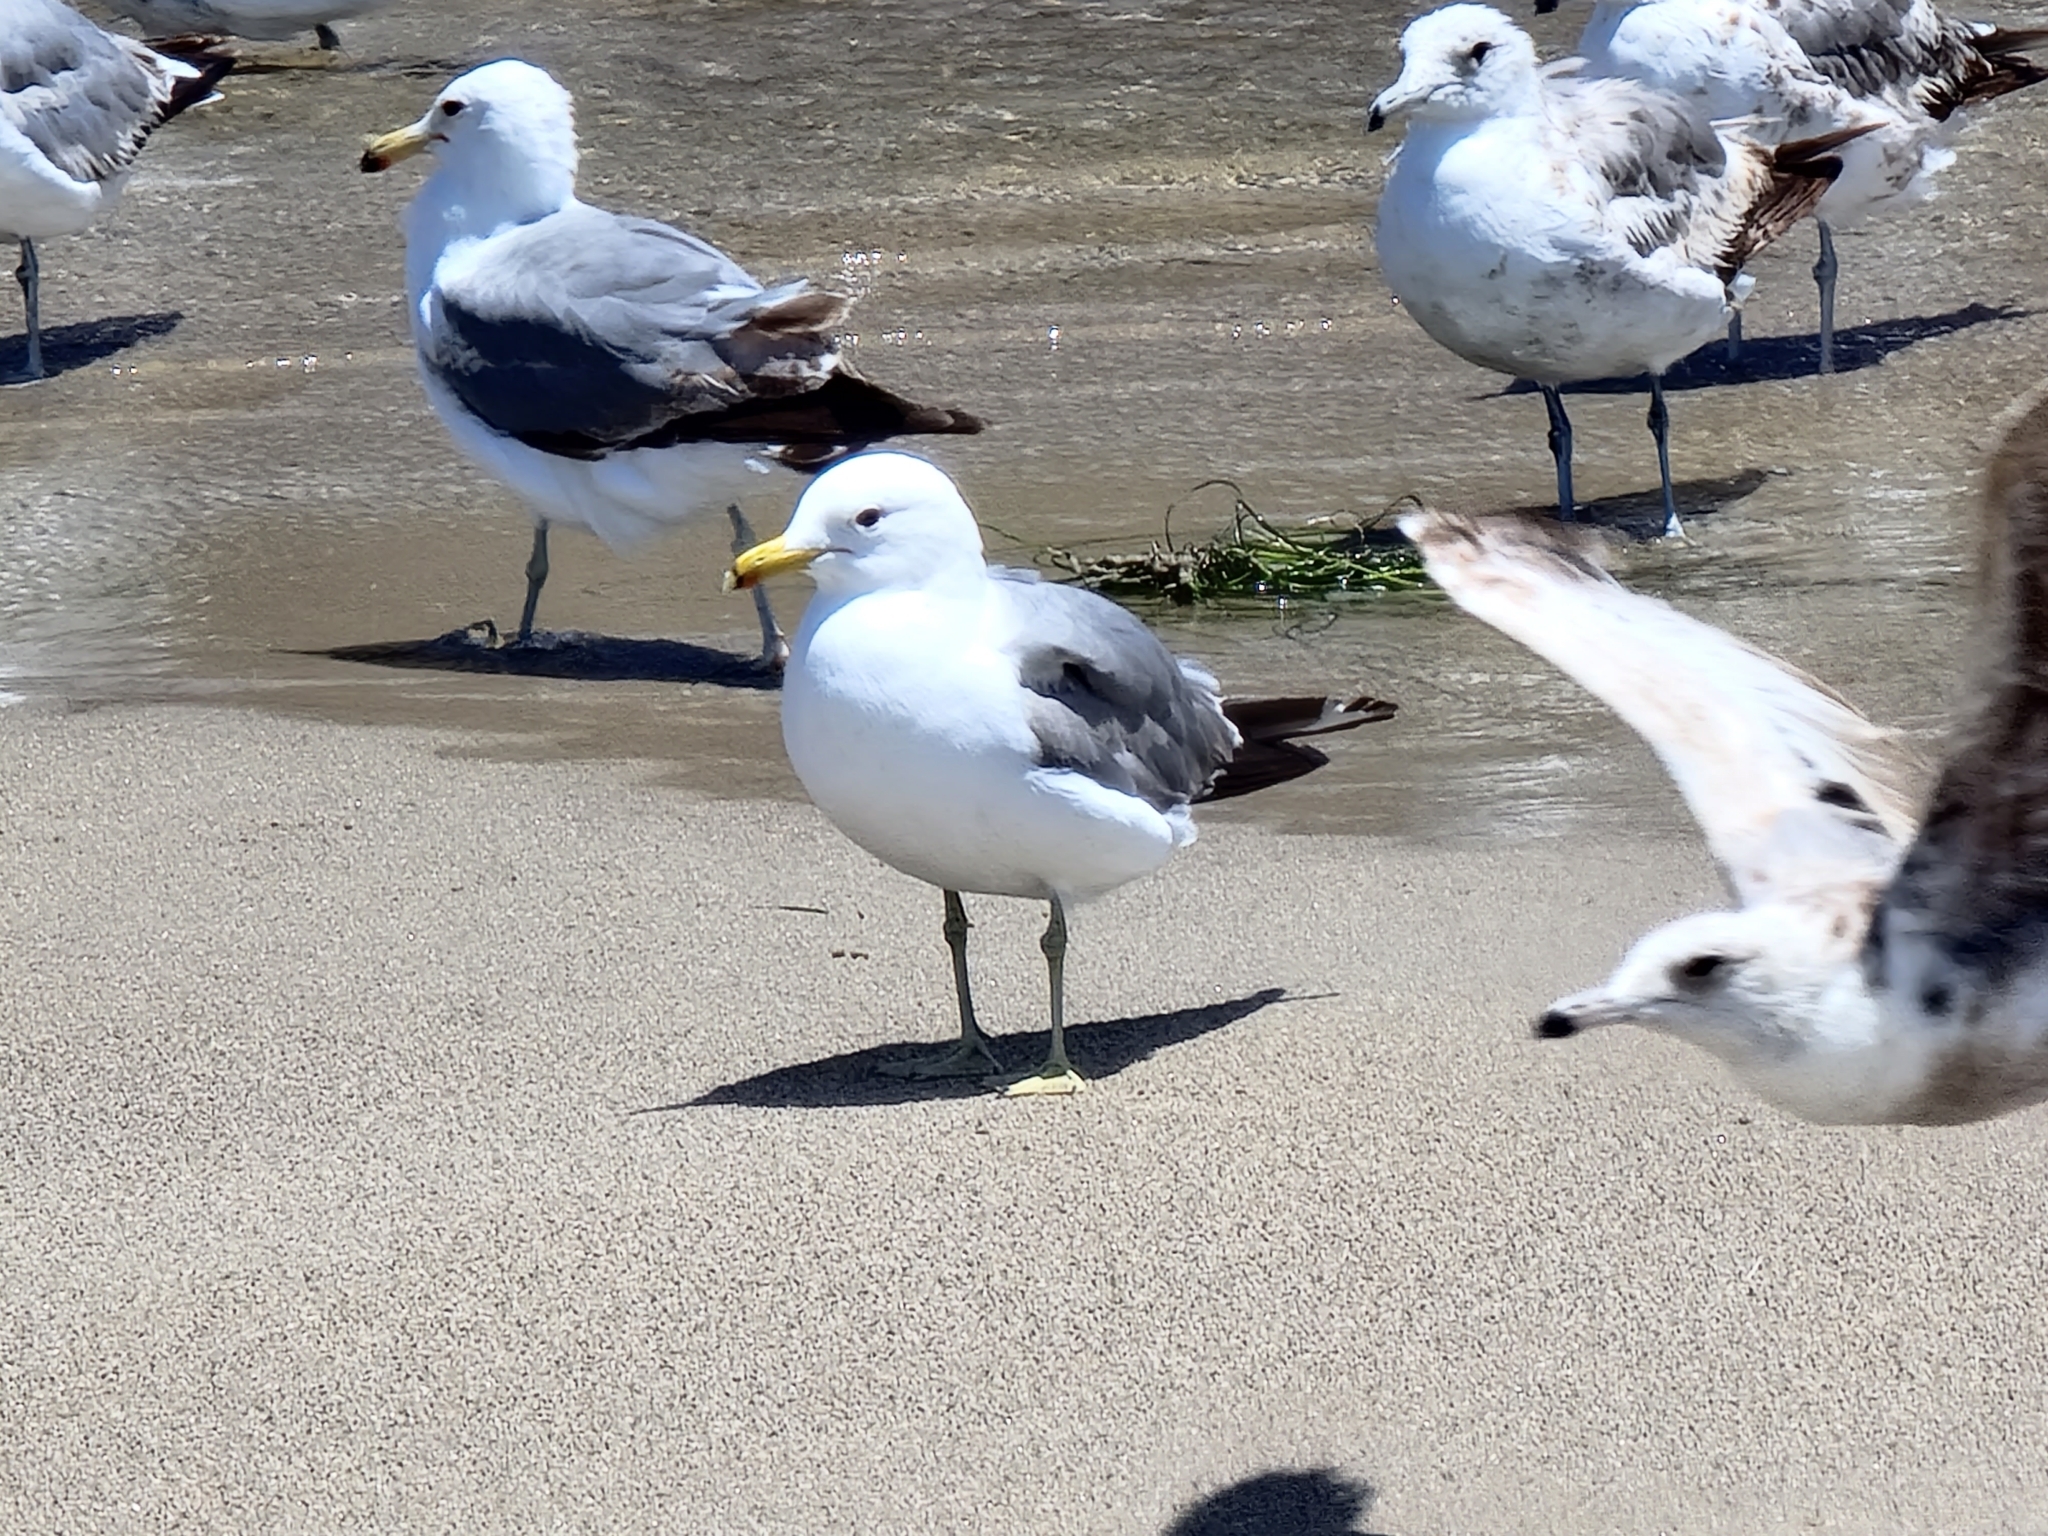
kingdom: Animalia
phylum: Chordata
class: Aves
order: Charadriiformes
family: Laridae
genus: Larus
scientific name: Larus californicus
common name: California gull
